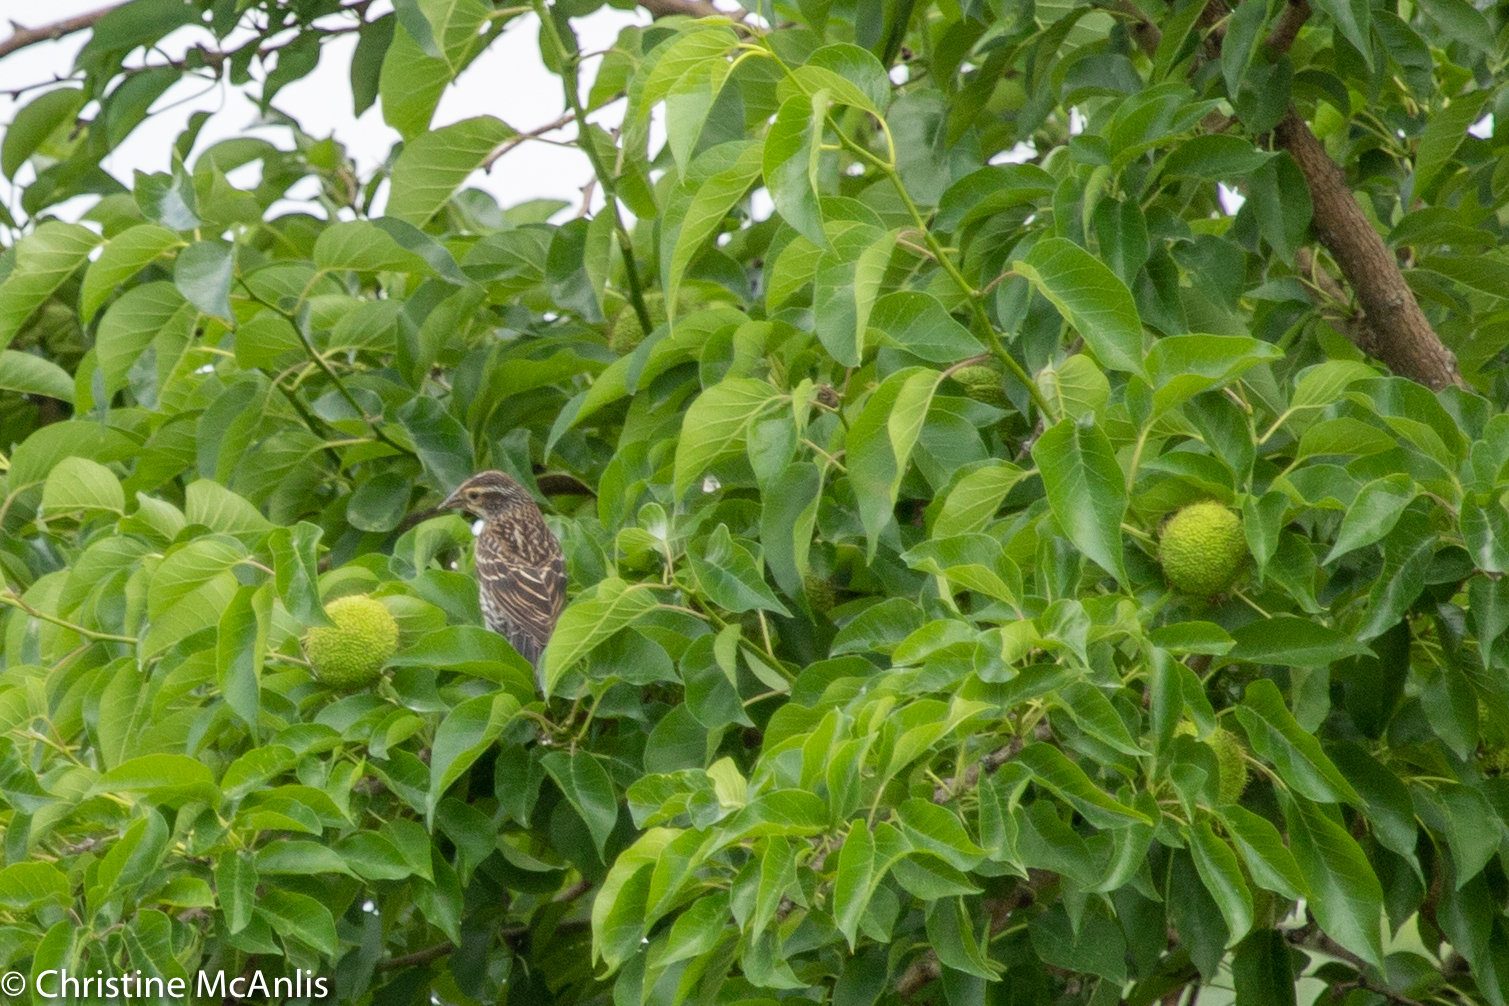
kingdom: Animalia
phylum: Chordata
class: Aves
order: Passeriformes
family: Icteridae
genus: Agelaius
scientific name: Agelaius phoeniceus
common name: Red-winged blackbird
